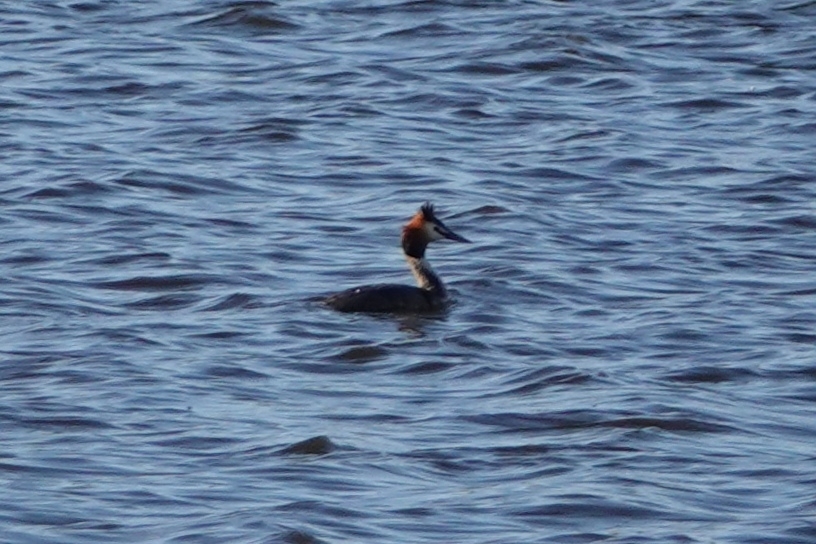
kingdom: Animalia
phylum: Chordata
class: Aves
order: Podicipediformes
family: Podicipedidae
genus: Podiceps
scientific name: Podiceps cristatus
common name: Great crested grebe
